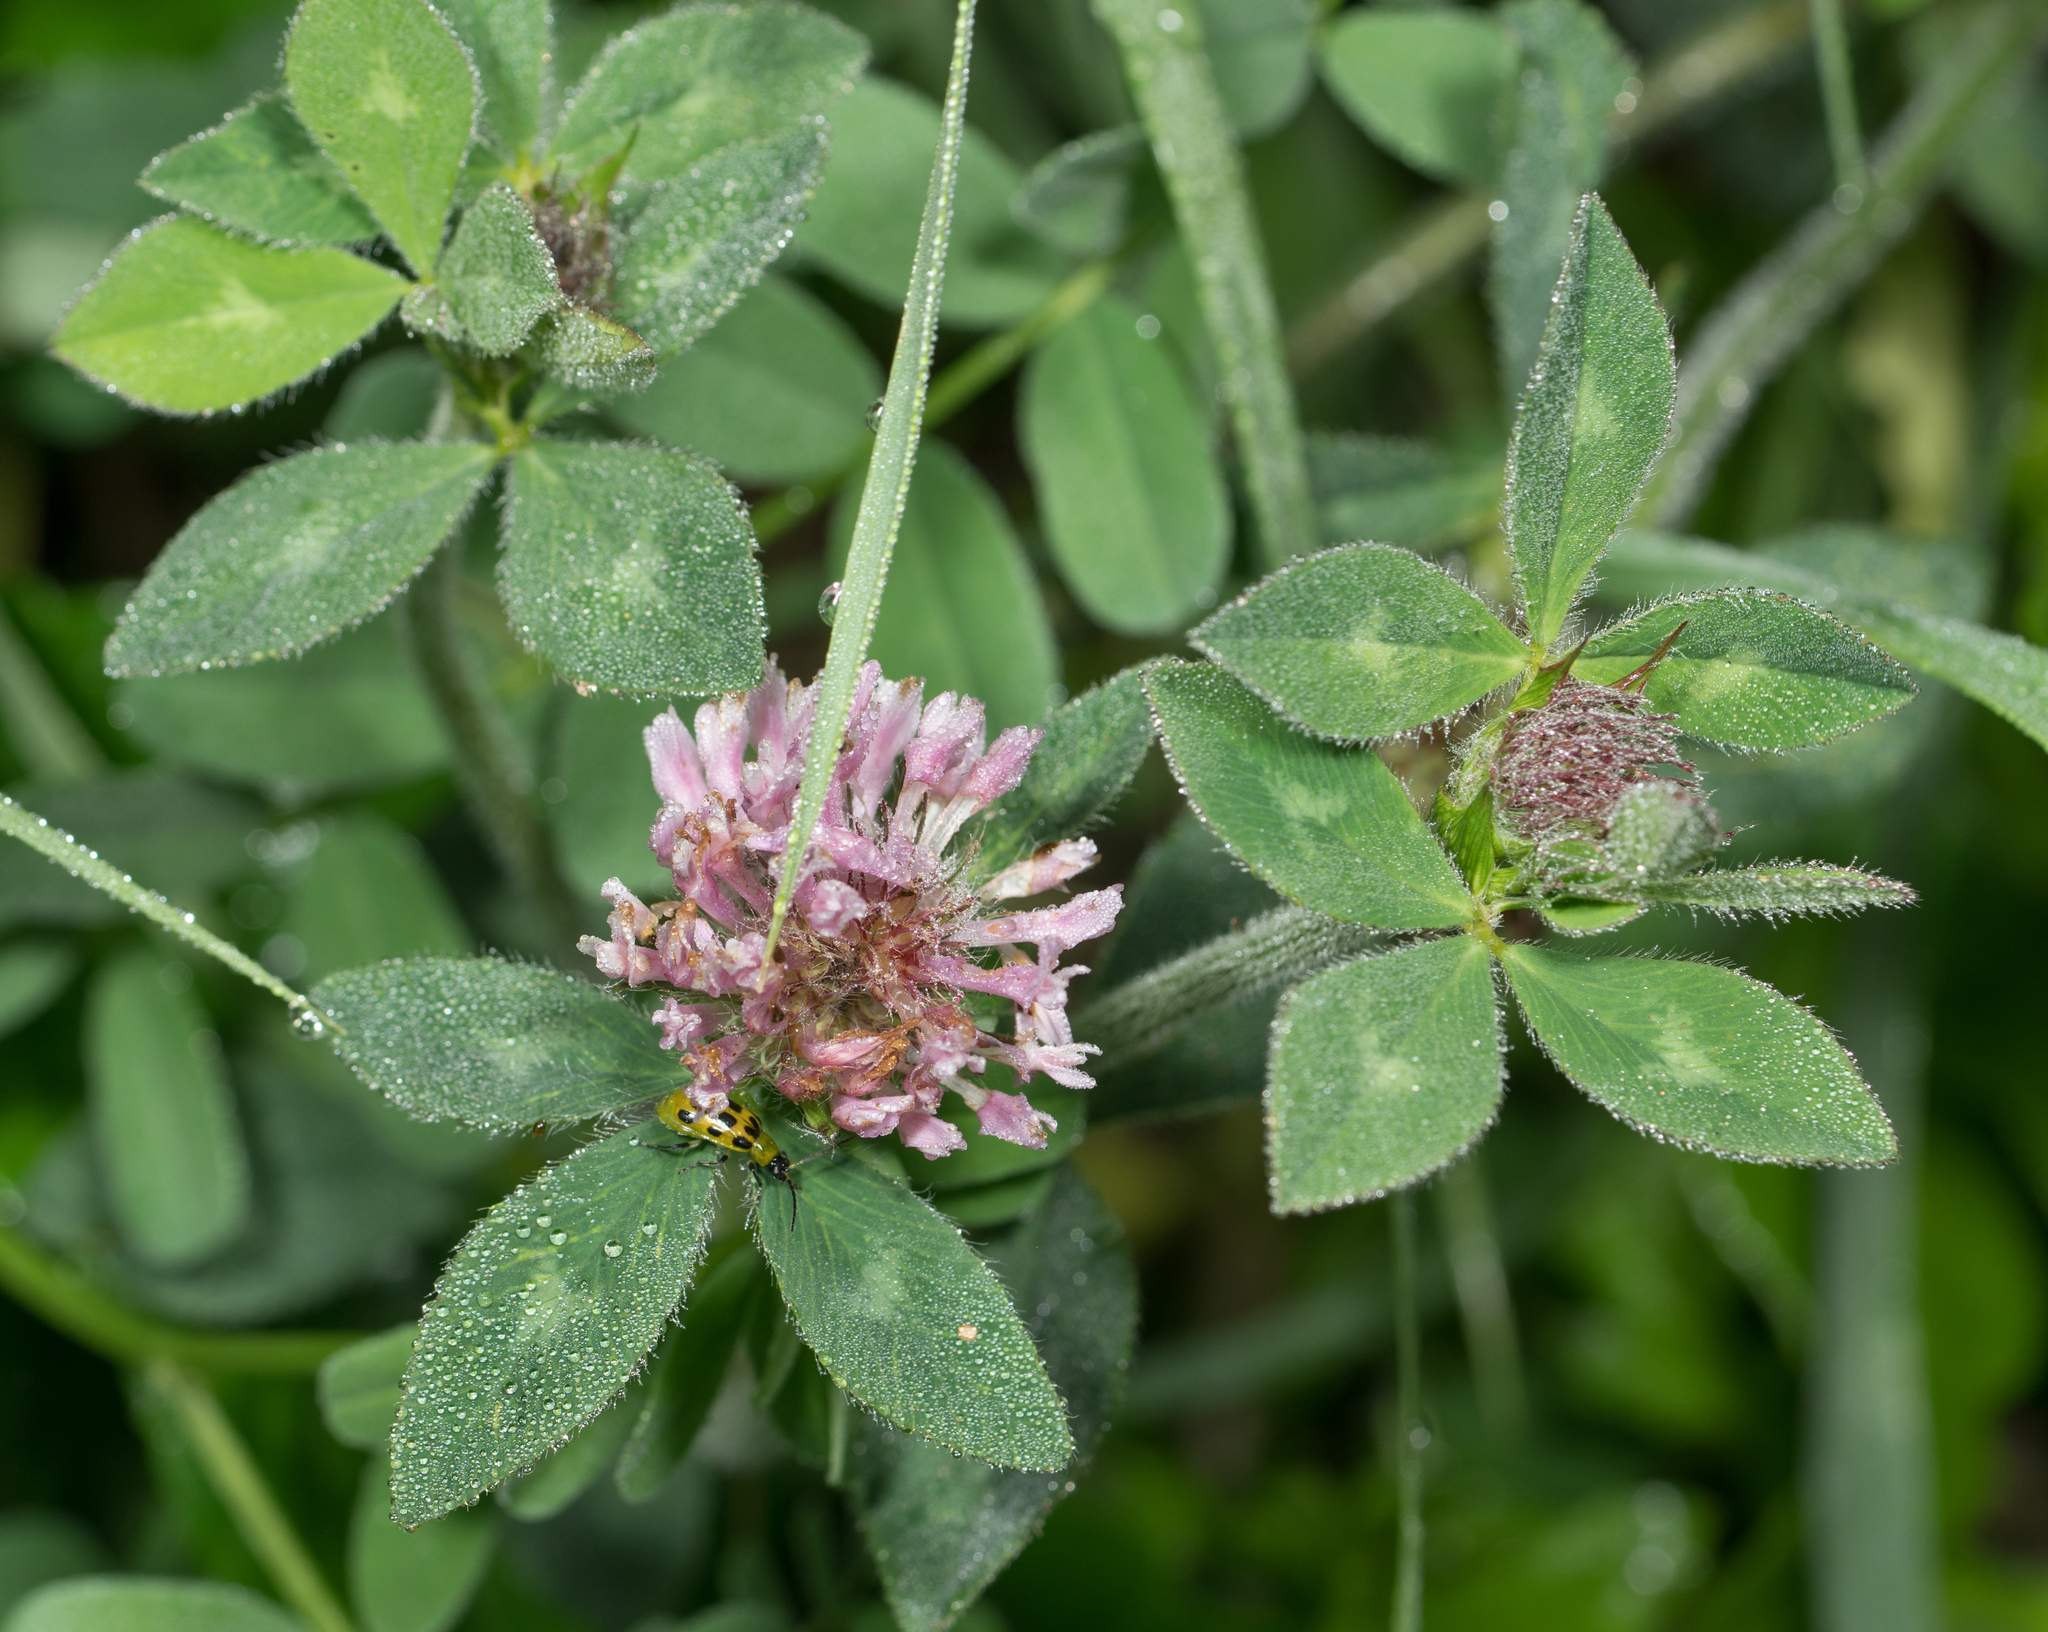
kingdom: Plantae
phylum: Tracheophyta
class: Magnoliopsida
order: Fabales
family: Fabaceae
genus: Trifolium
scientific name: Trifolium pratense
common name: Red clover
